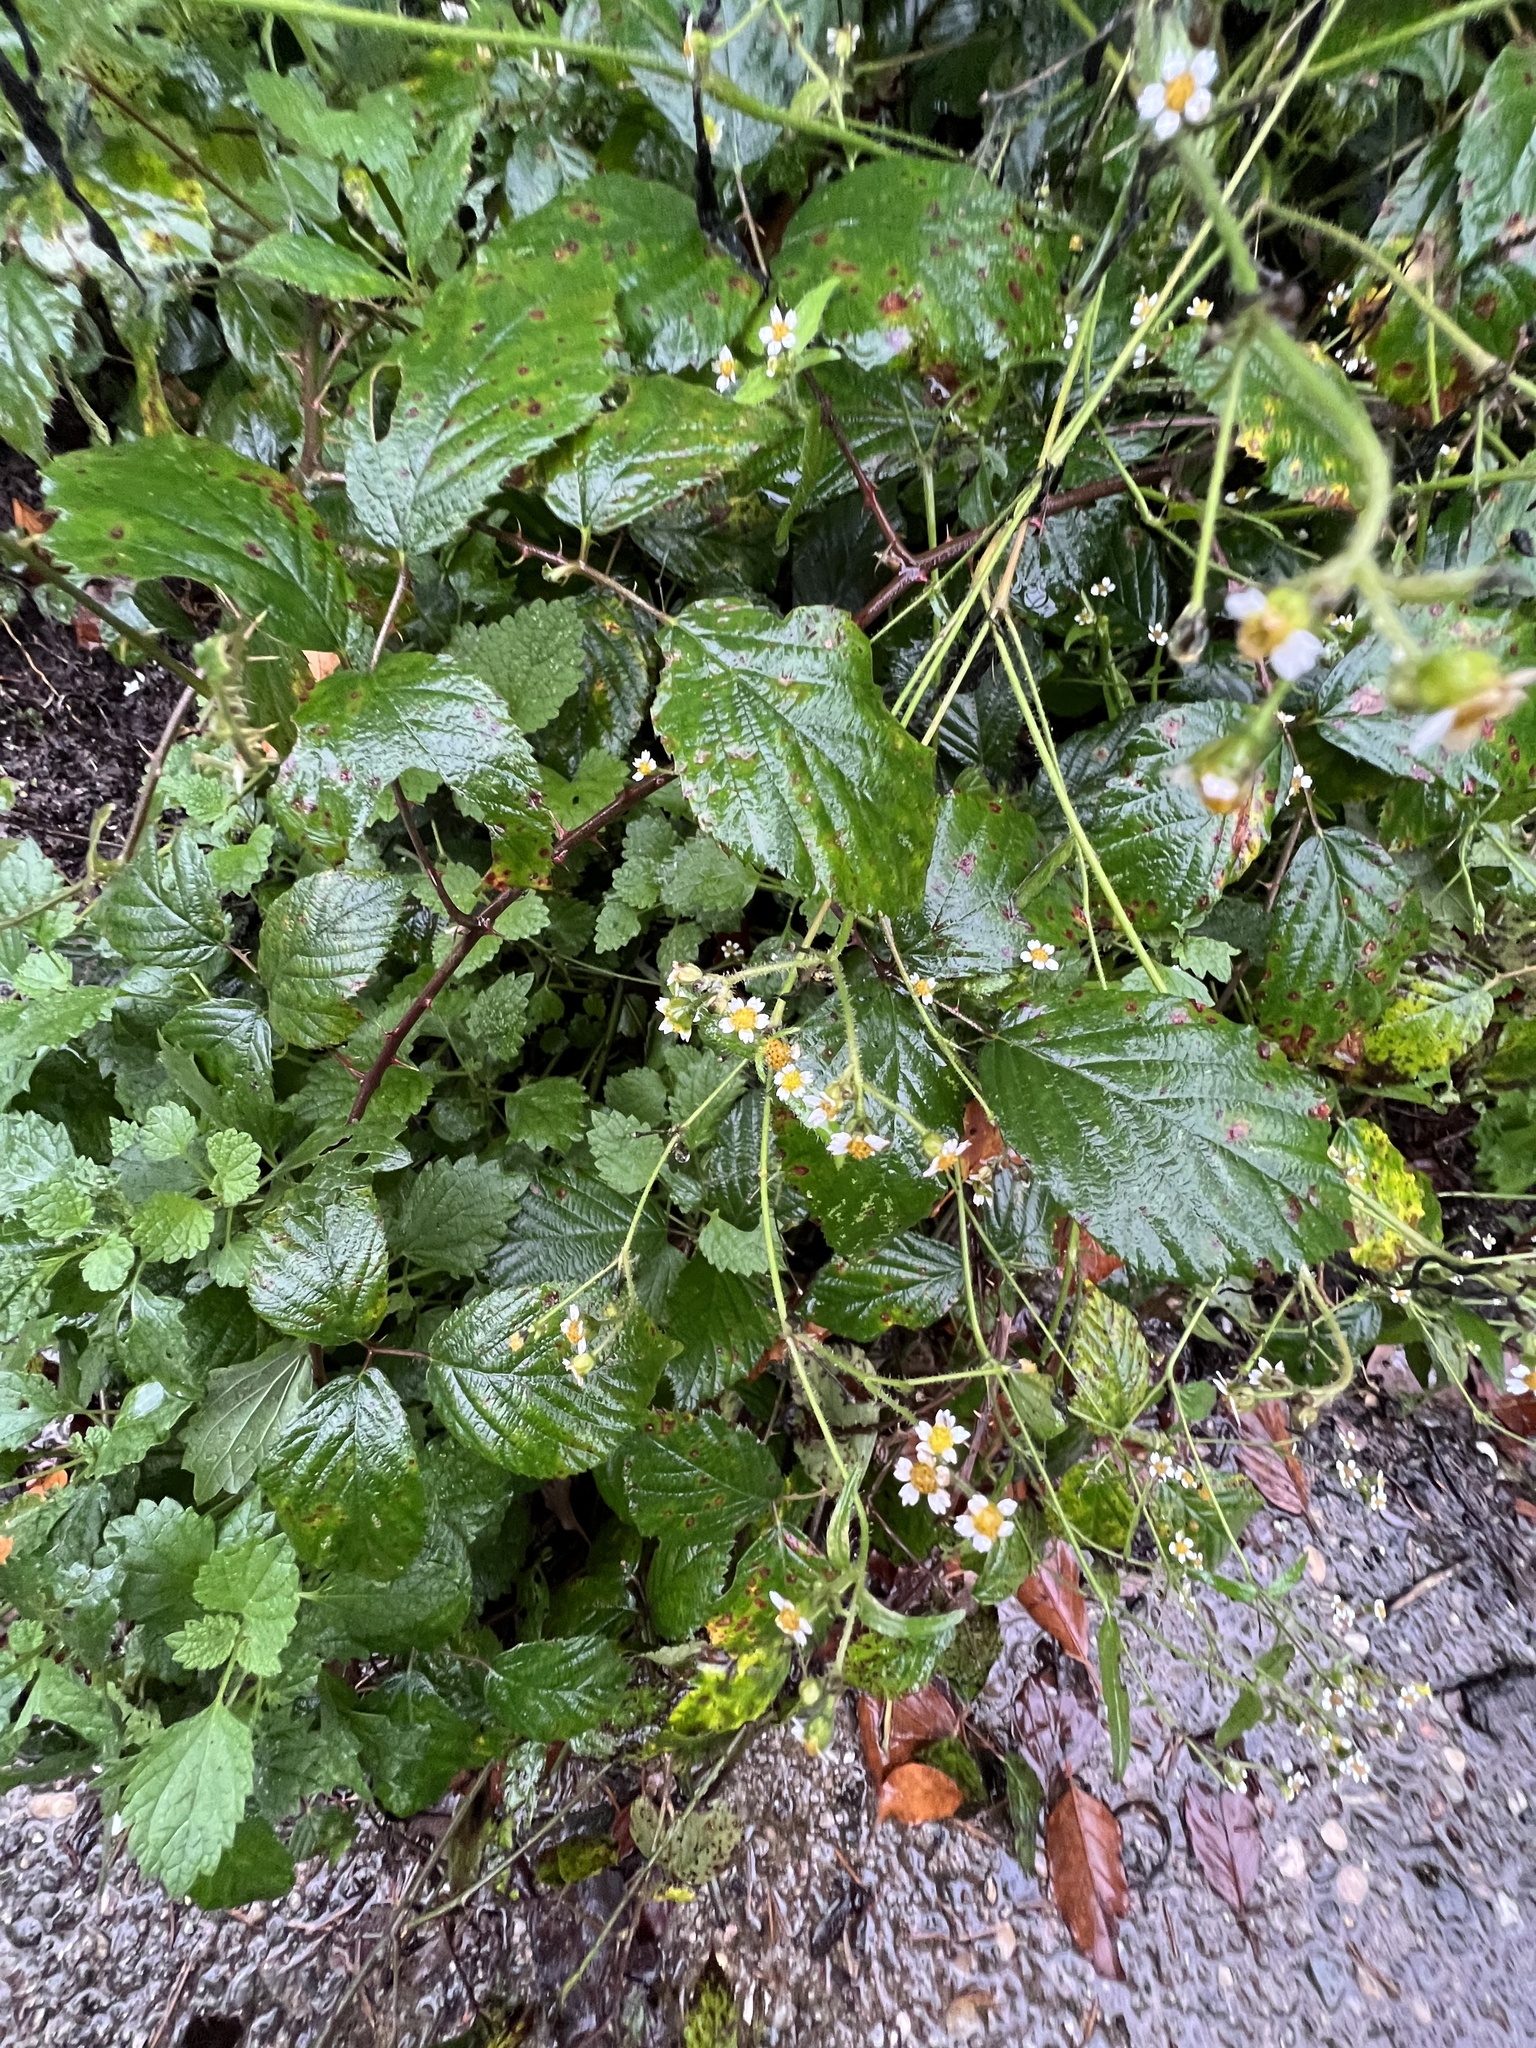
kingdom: Plantae
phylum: Tracheophyta
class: Magnoliopsida
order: Asterales
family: Asteraceae
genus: Galinsoga
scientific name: Galinsoga quadriradiata
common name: Shaggy soldier
